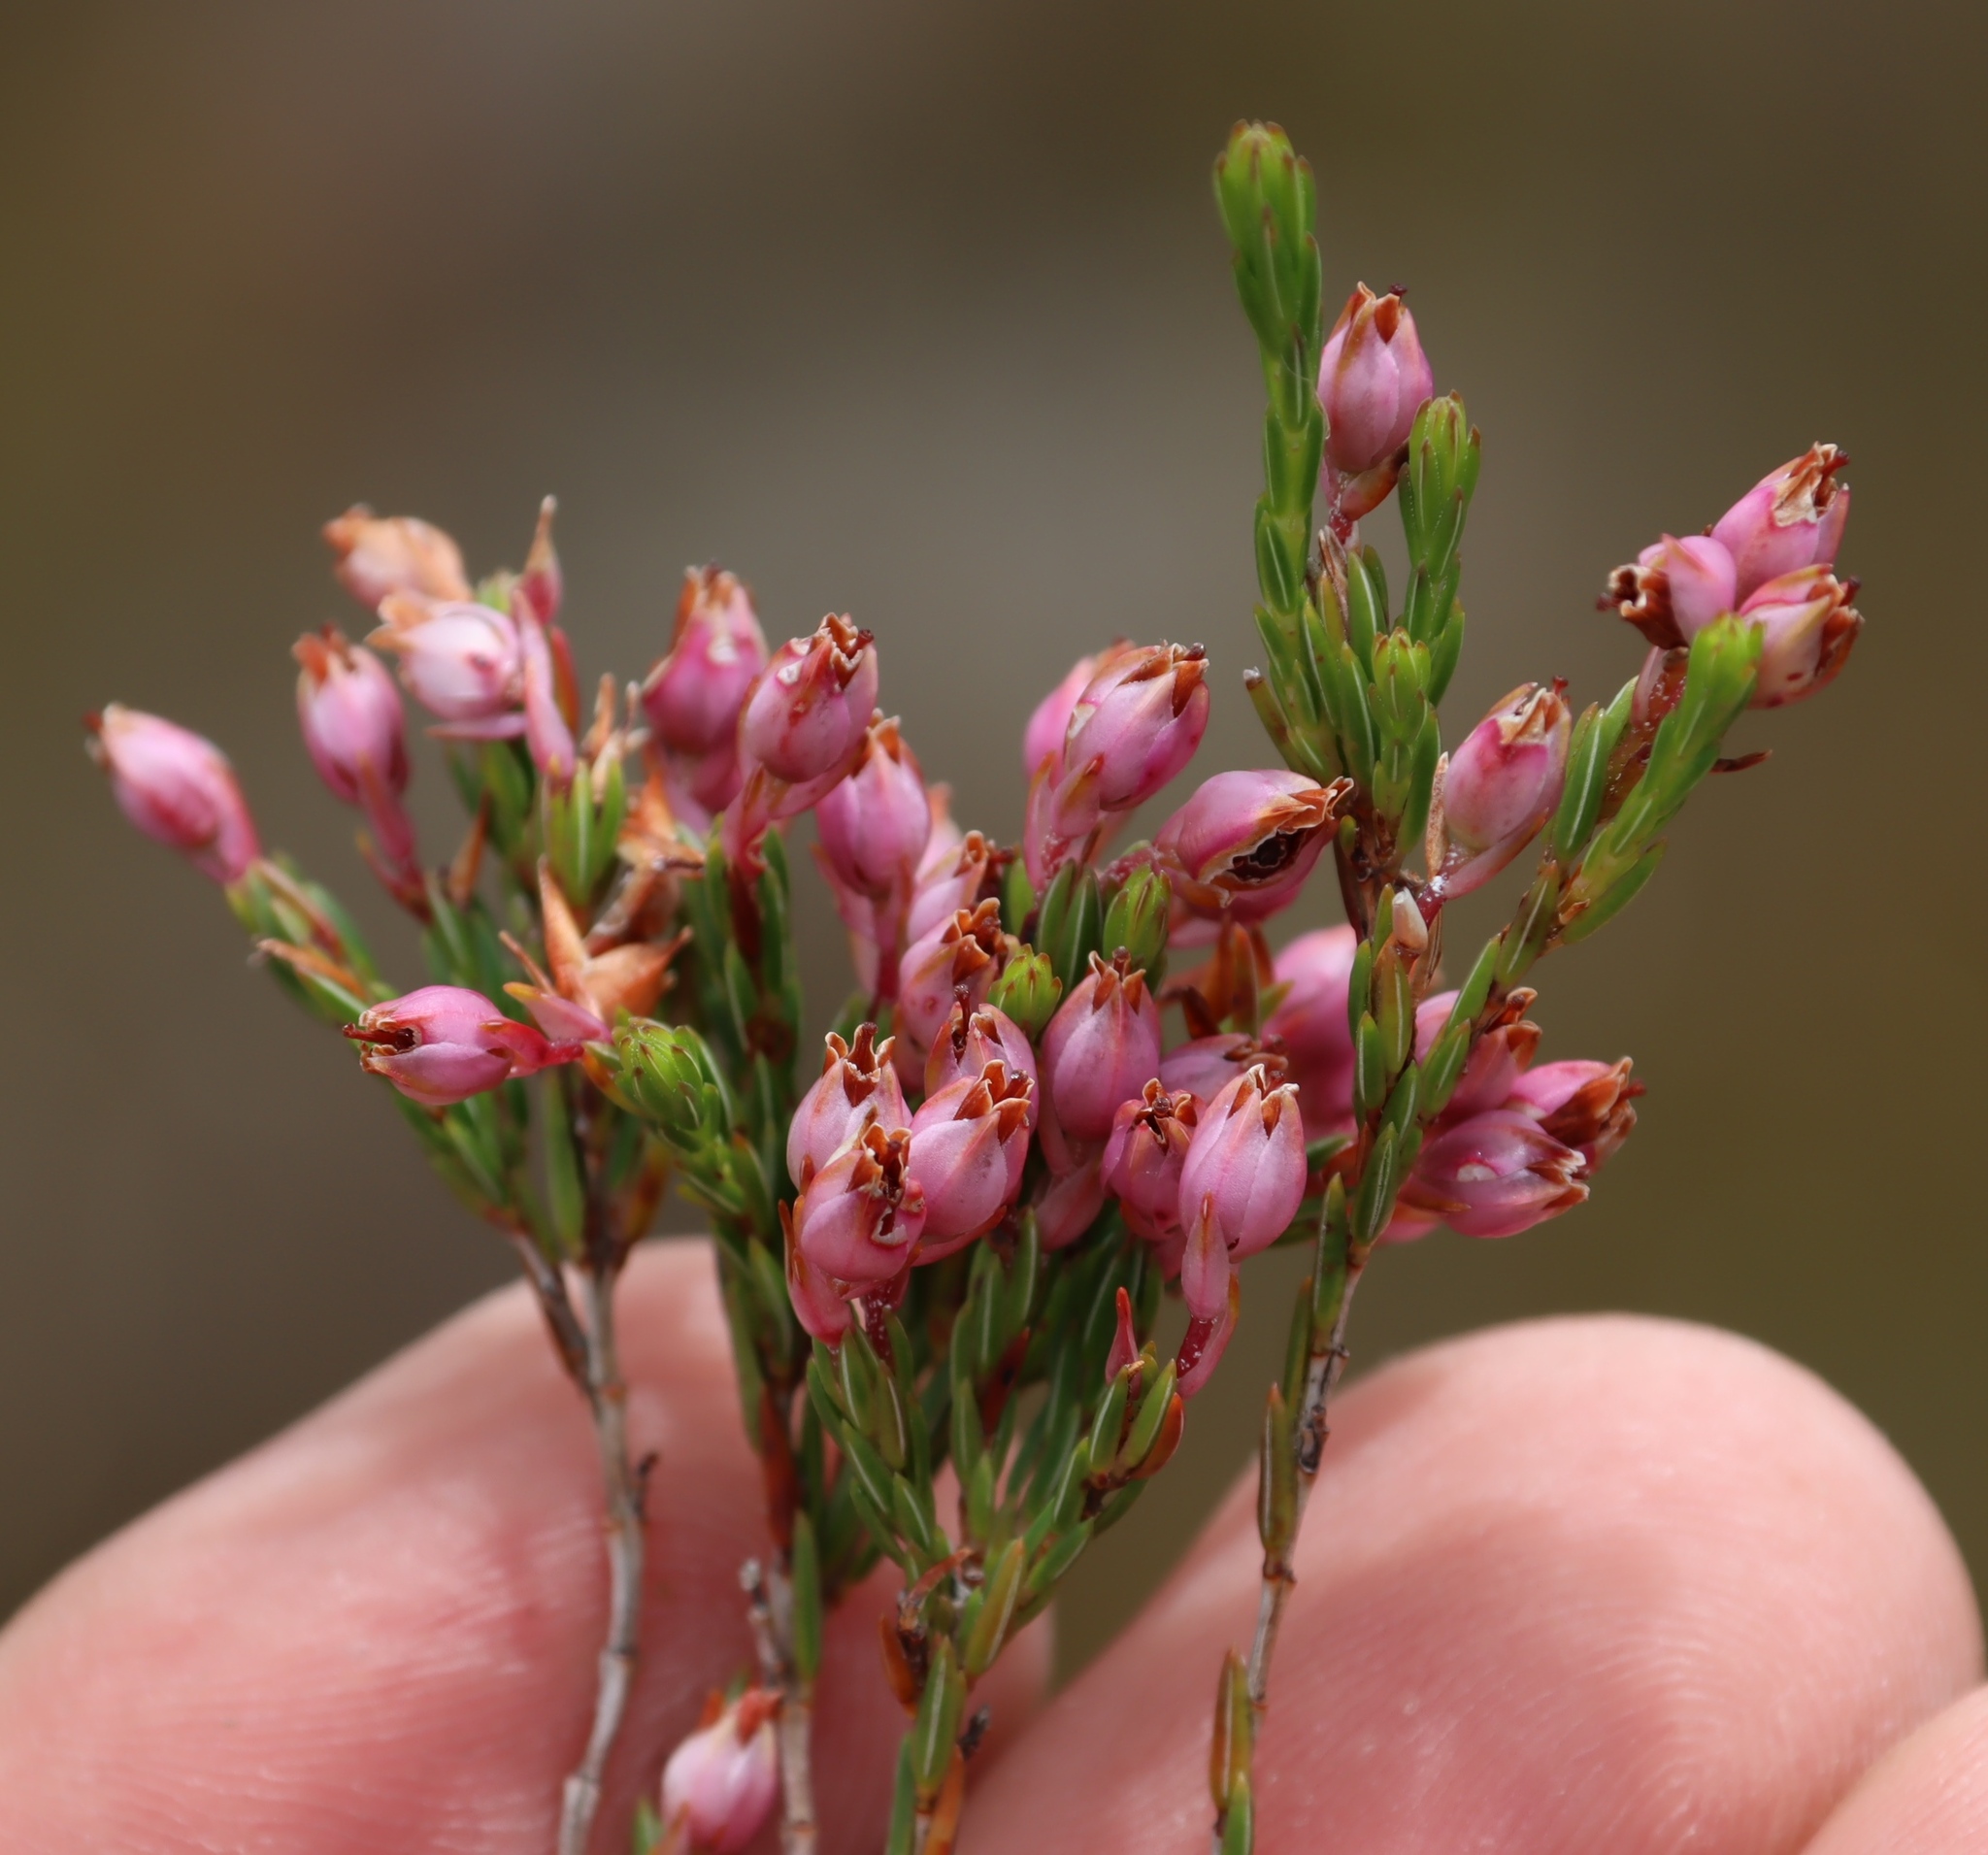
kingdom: Plantae
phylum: Tracheophyta
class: Magnoliopsida
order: Ericales
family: Ericaceae
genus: Erica
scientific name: Erica palliiflora
